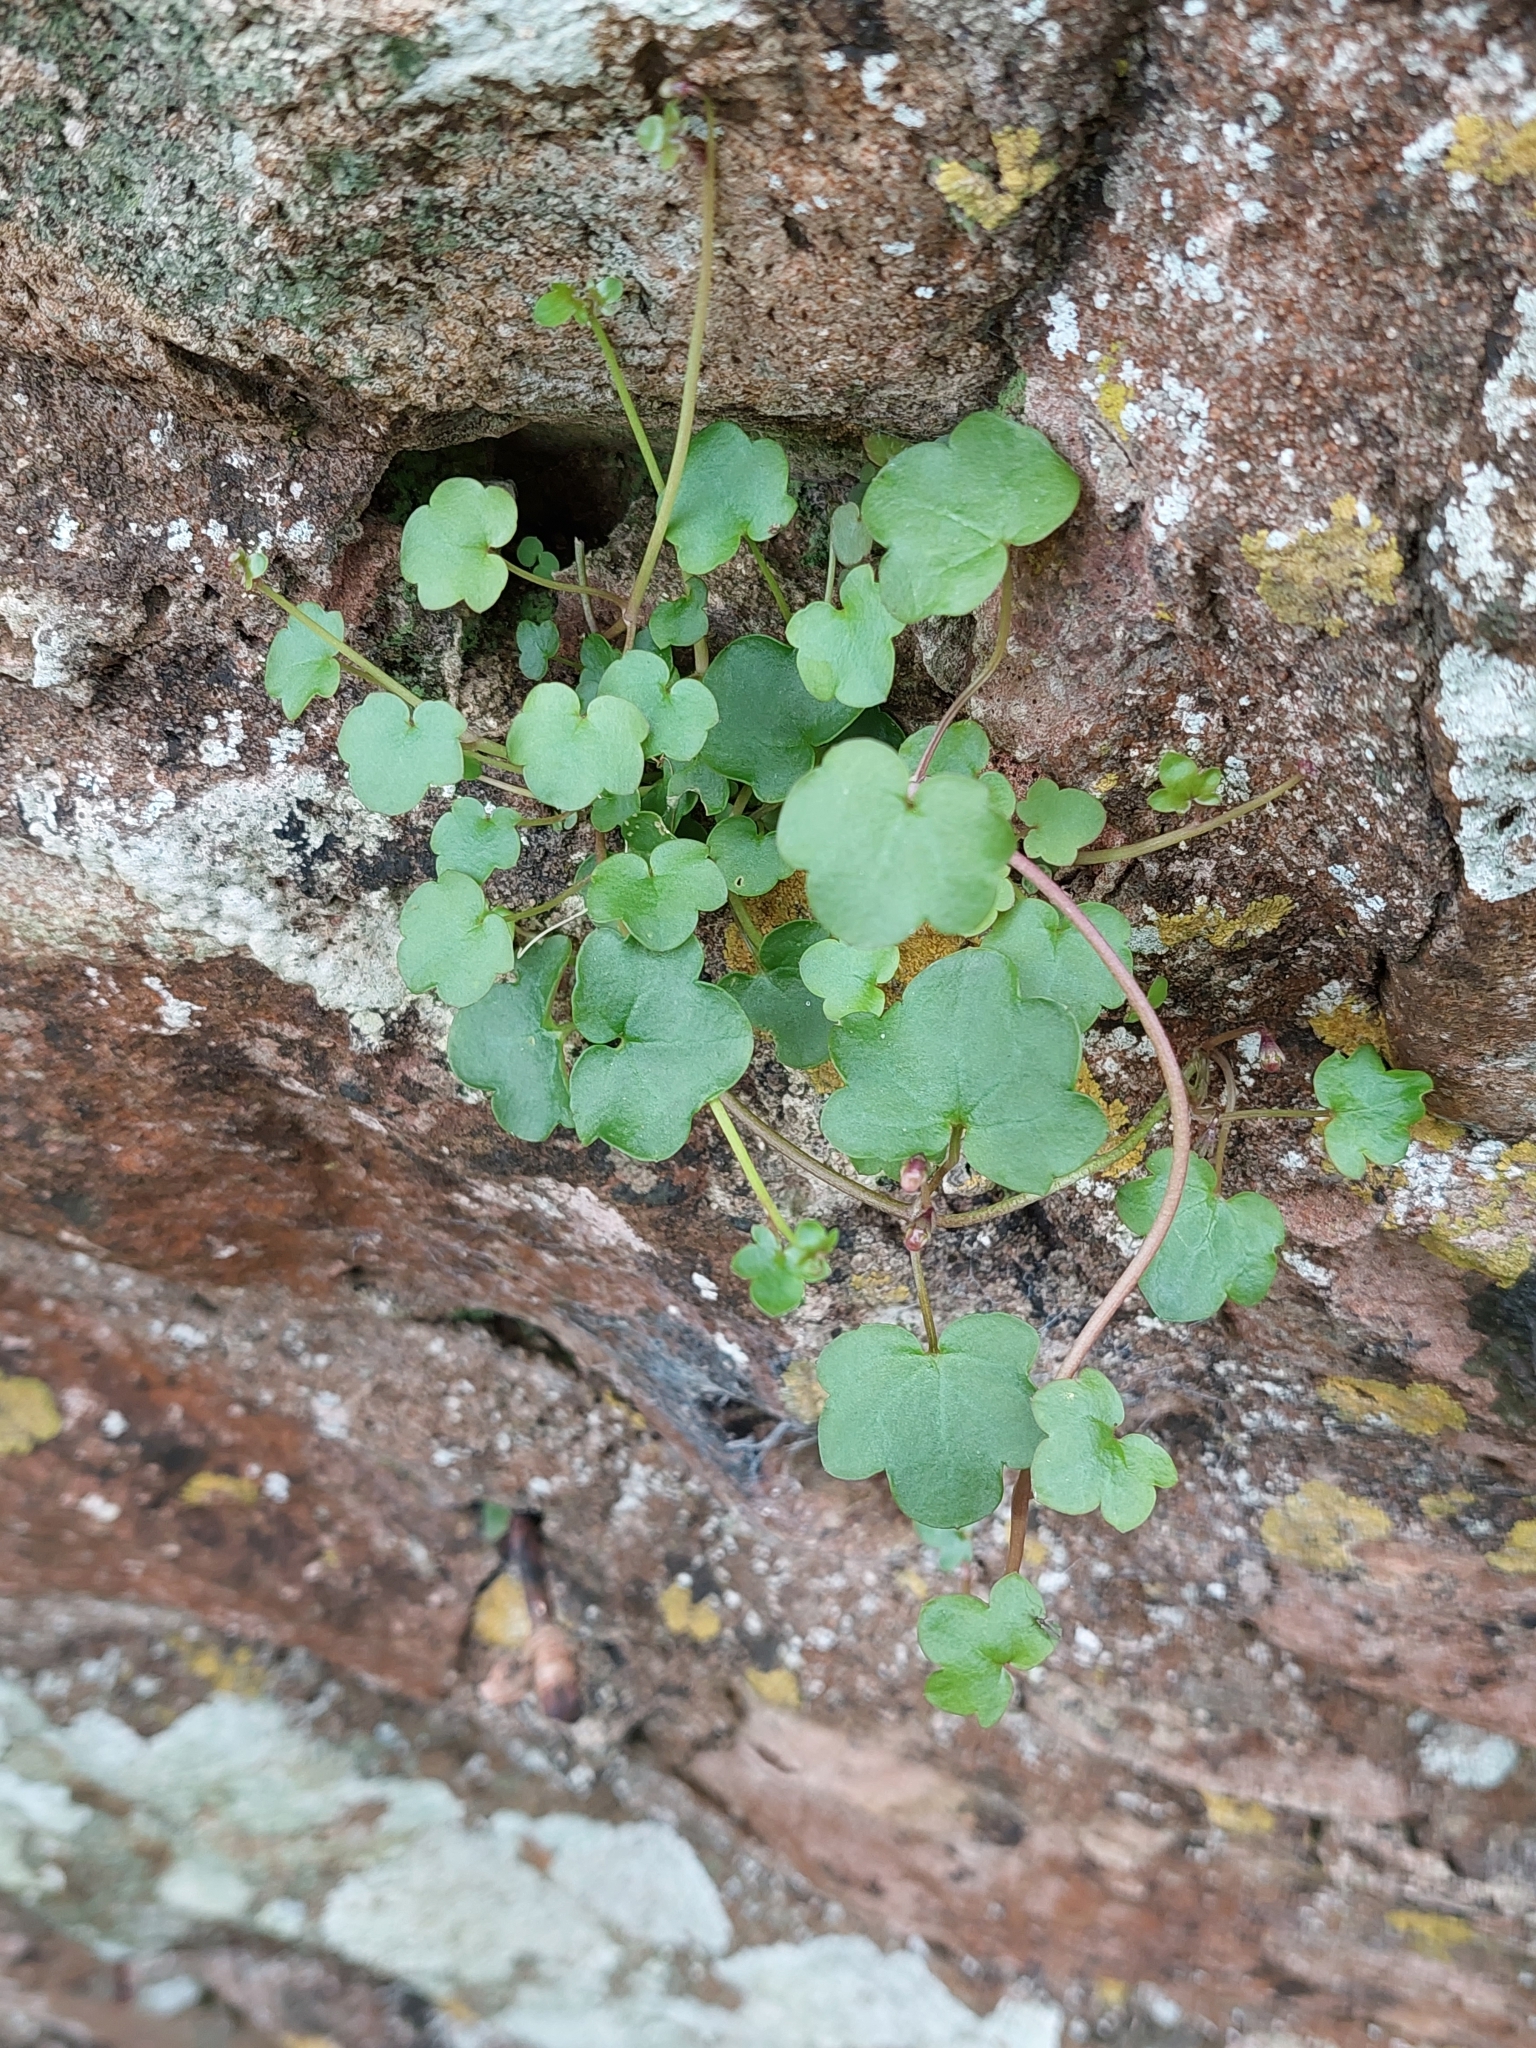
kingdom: Plantae
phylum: Tracheophyta
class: Magnoliopsida
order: Lamiales
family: Plantaginaceae
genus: Cymbalaria
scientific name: Cymbalaria muralis
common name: Ivy-leaved toadflax
